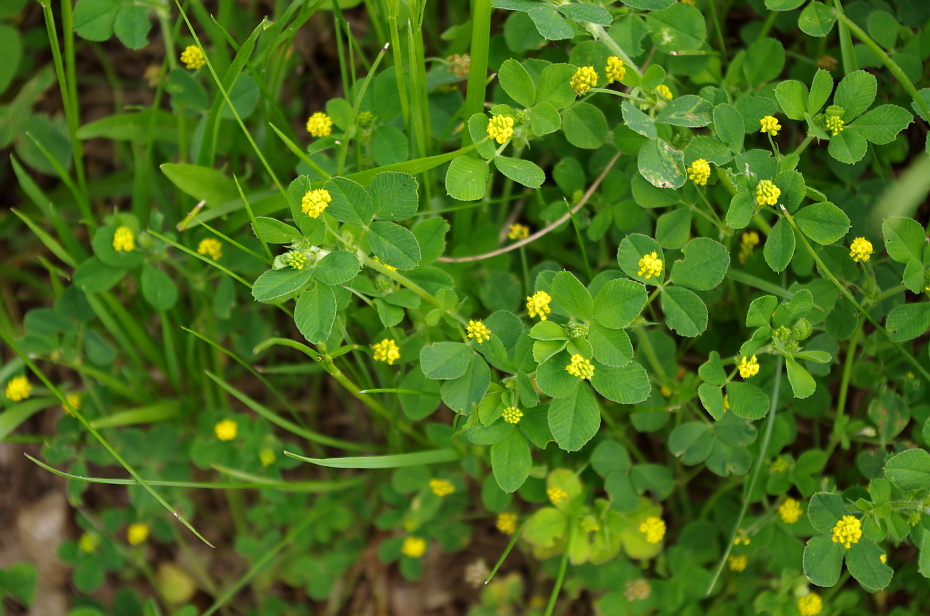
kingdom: Plantae
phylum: Tracheophyta
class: Magnoliopsida
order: Fabales
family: Fabaceae
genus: Medicago
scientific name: Medicago lupulina
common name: Black medick
